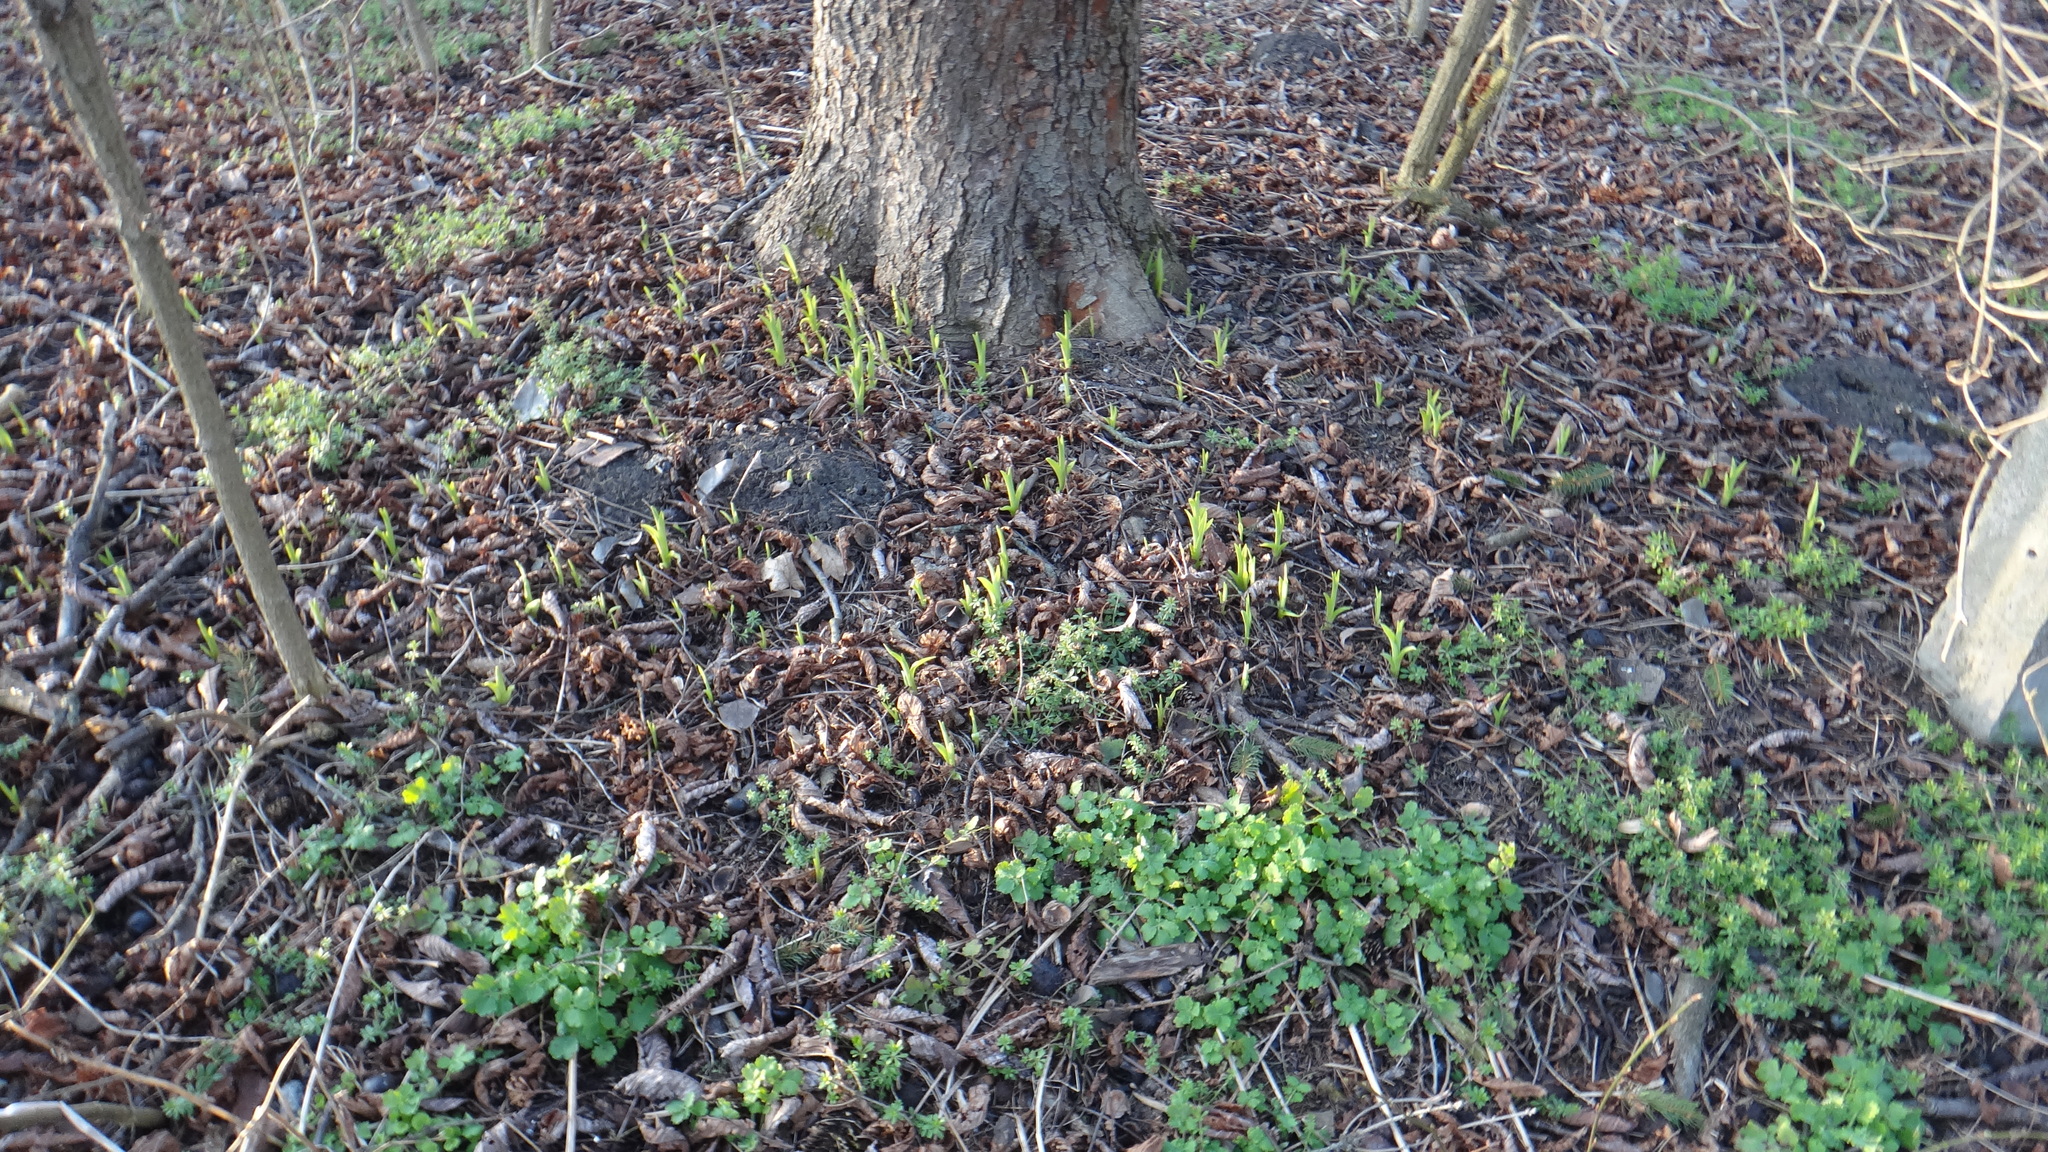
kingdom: Plantae
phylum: Tracheophyta
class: Liliopsida
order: Asparagales
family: Asphodelaceae
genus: Hemerocallis
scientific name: Hemerocallis fulva
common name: Orange day-lily
